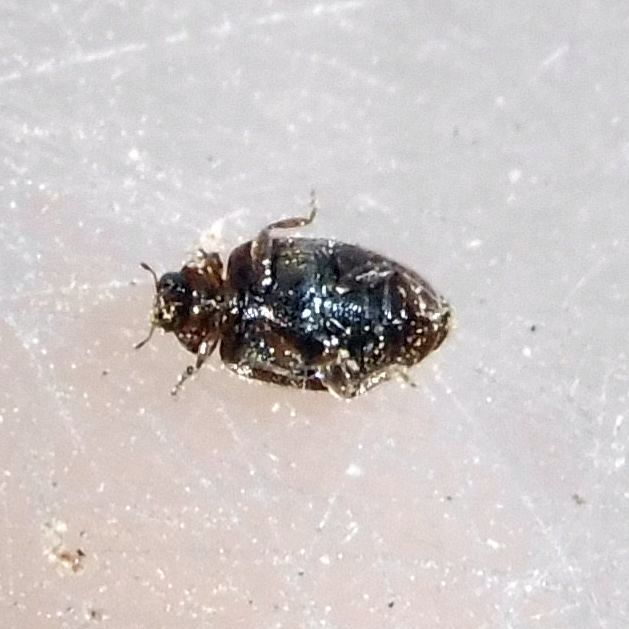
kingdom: Animalia
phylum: Arthropoda
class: Insecta
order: Coleoptera
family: Coccinellidae
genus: Scymnus
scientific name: Scymnus suturalis
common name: Ladybird beetle
